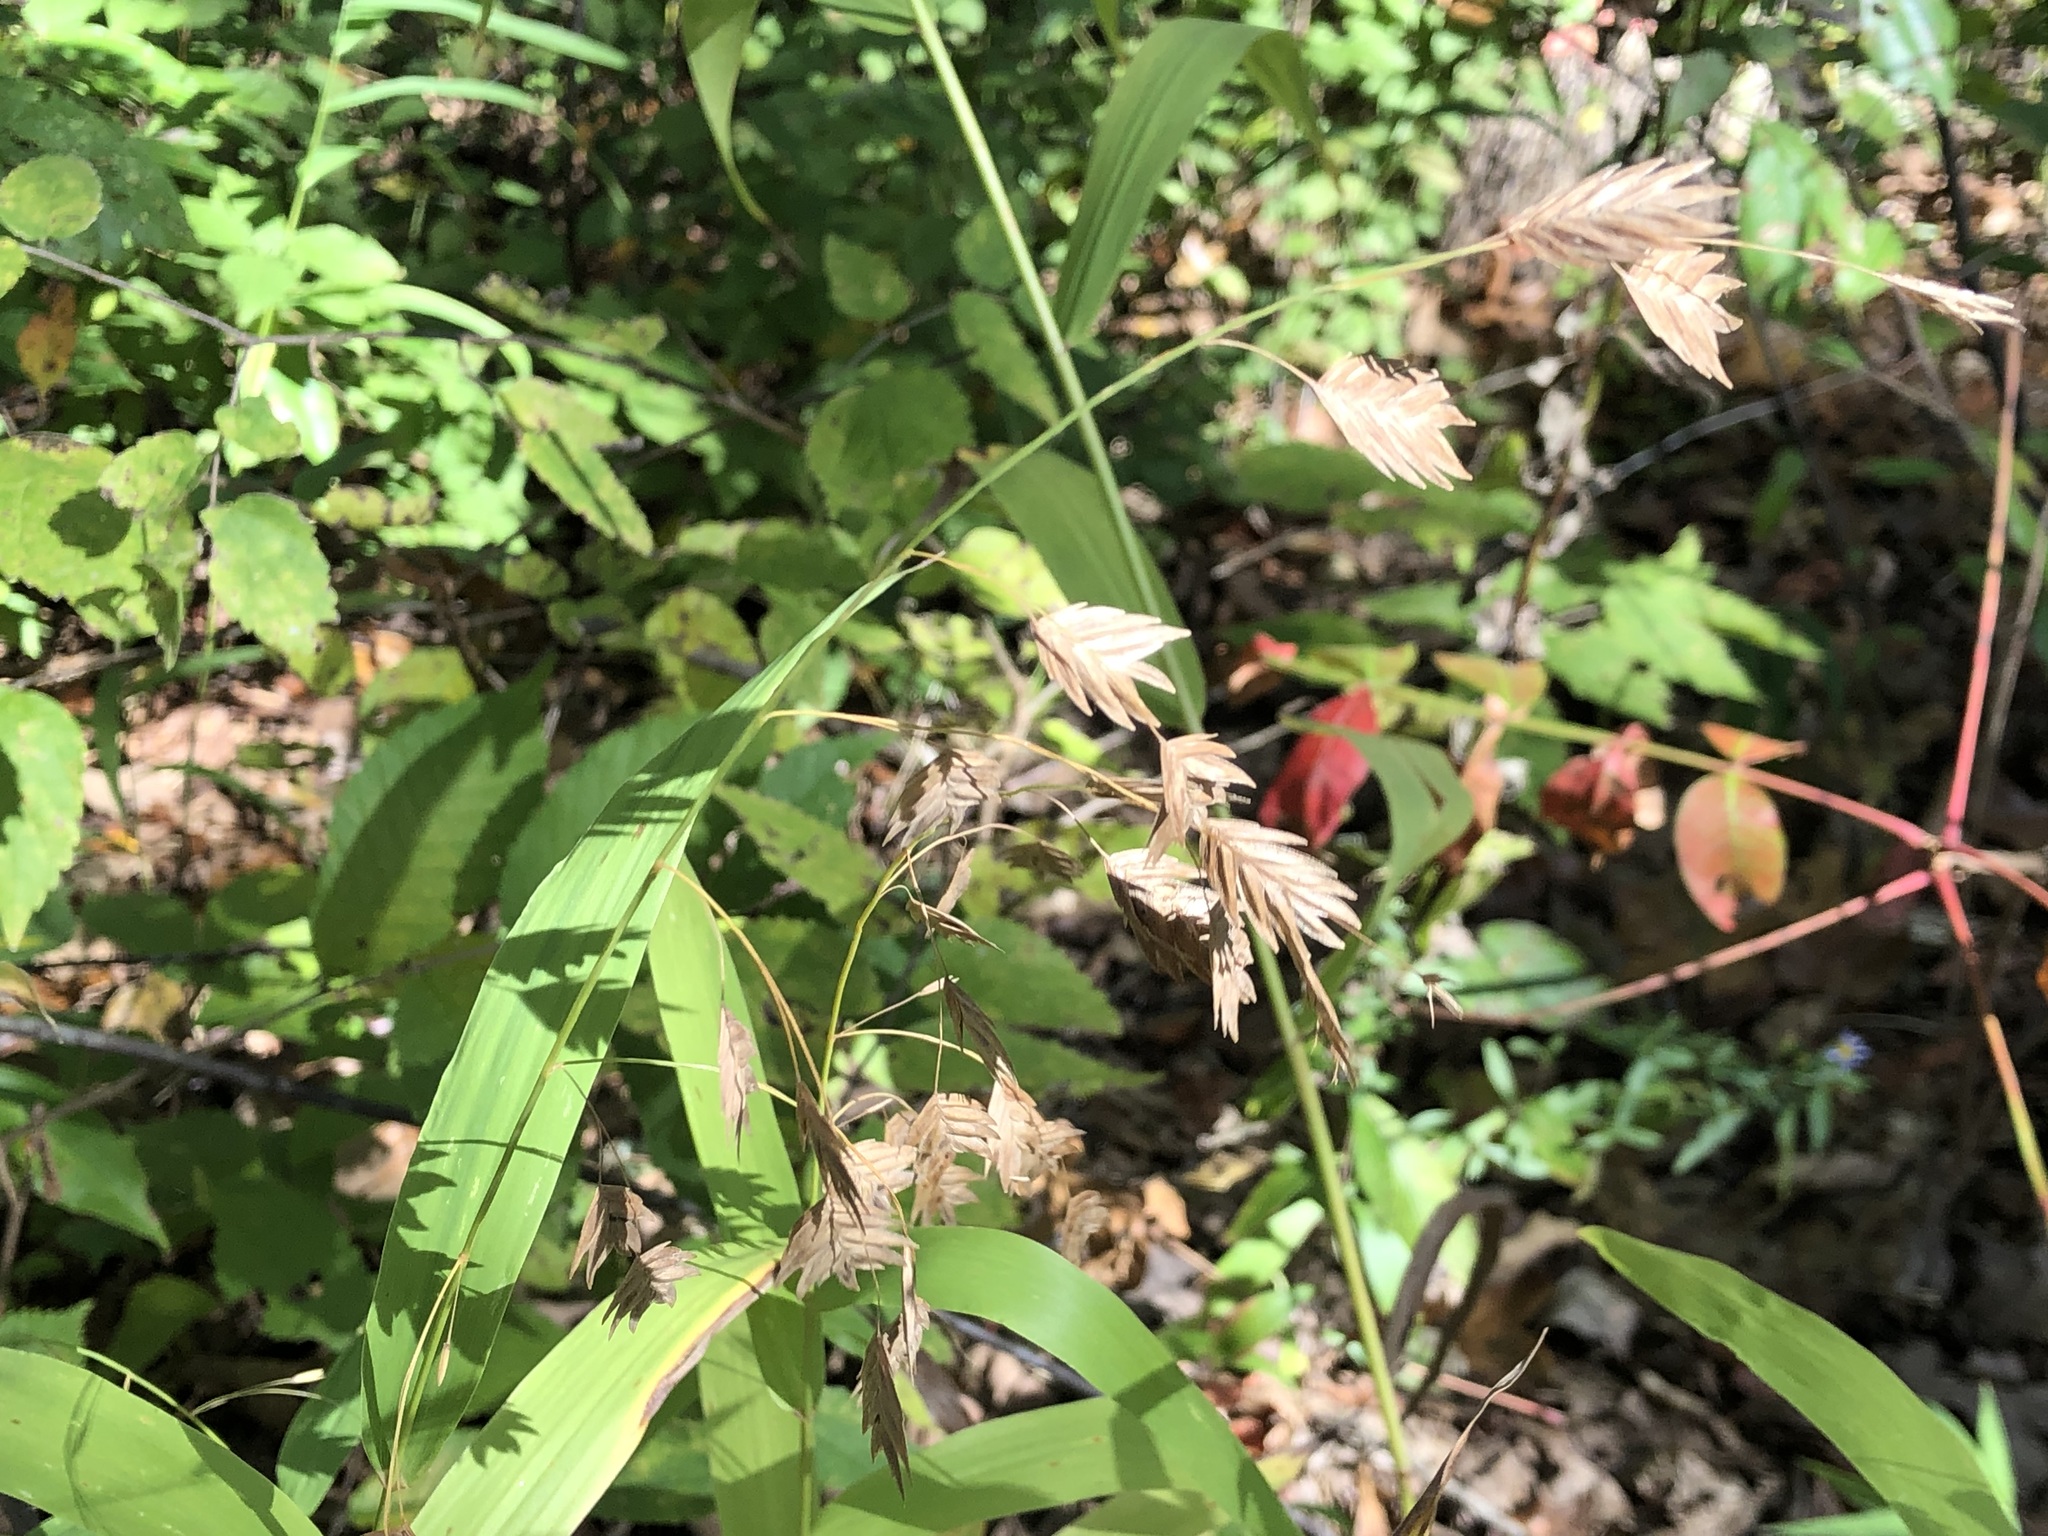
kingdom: Plantae
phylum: Tracheophyta
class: Liliopsida
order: Poales
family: Poaceae
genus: Chasmanthium
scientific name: Chasmanthium latifolium
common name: Broad-leaved chasmanthium
